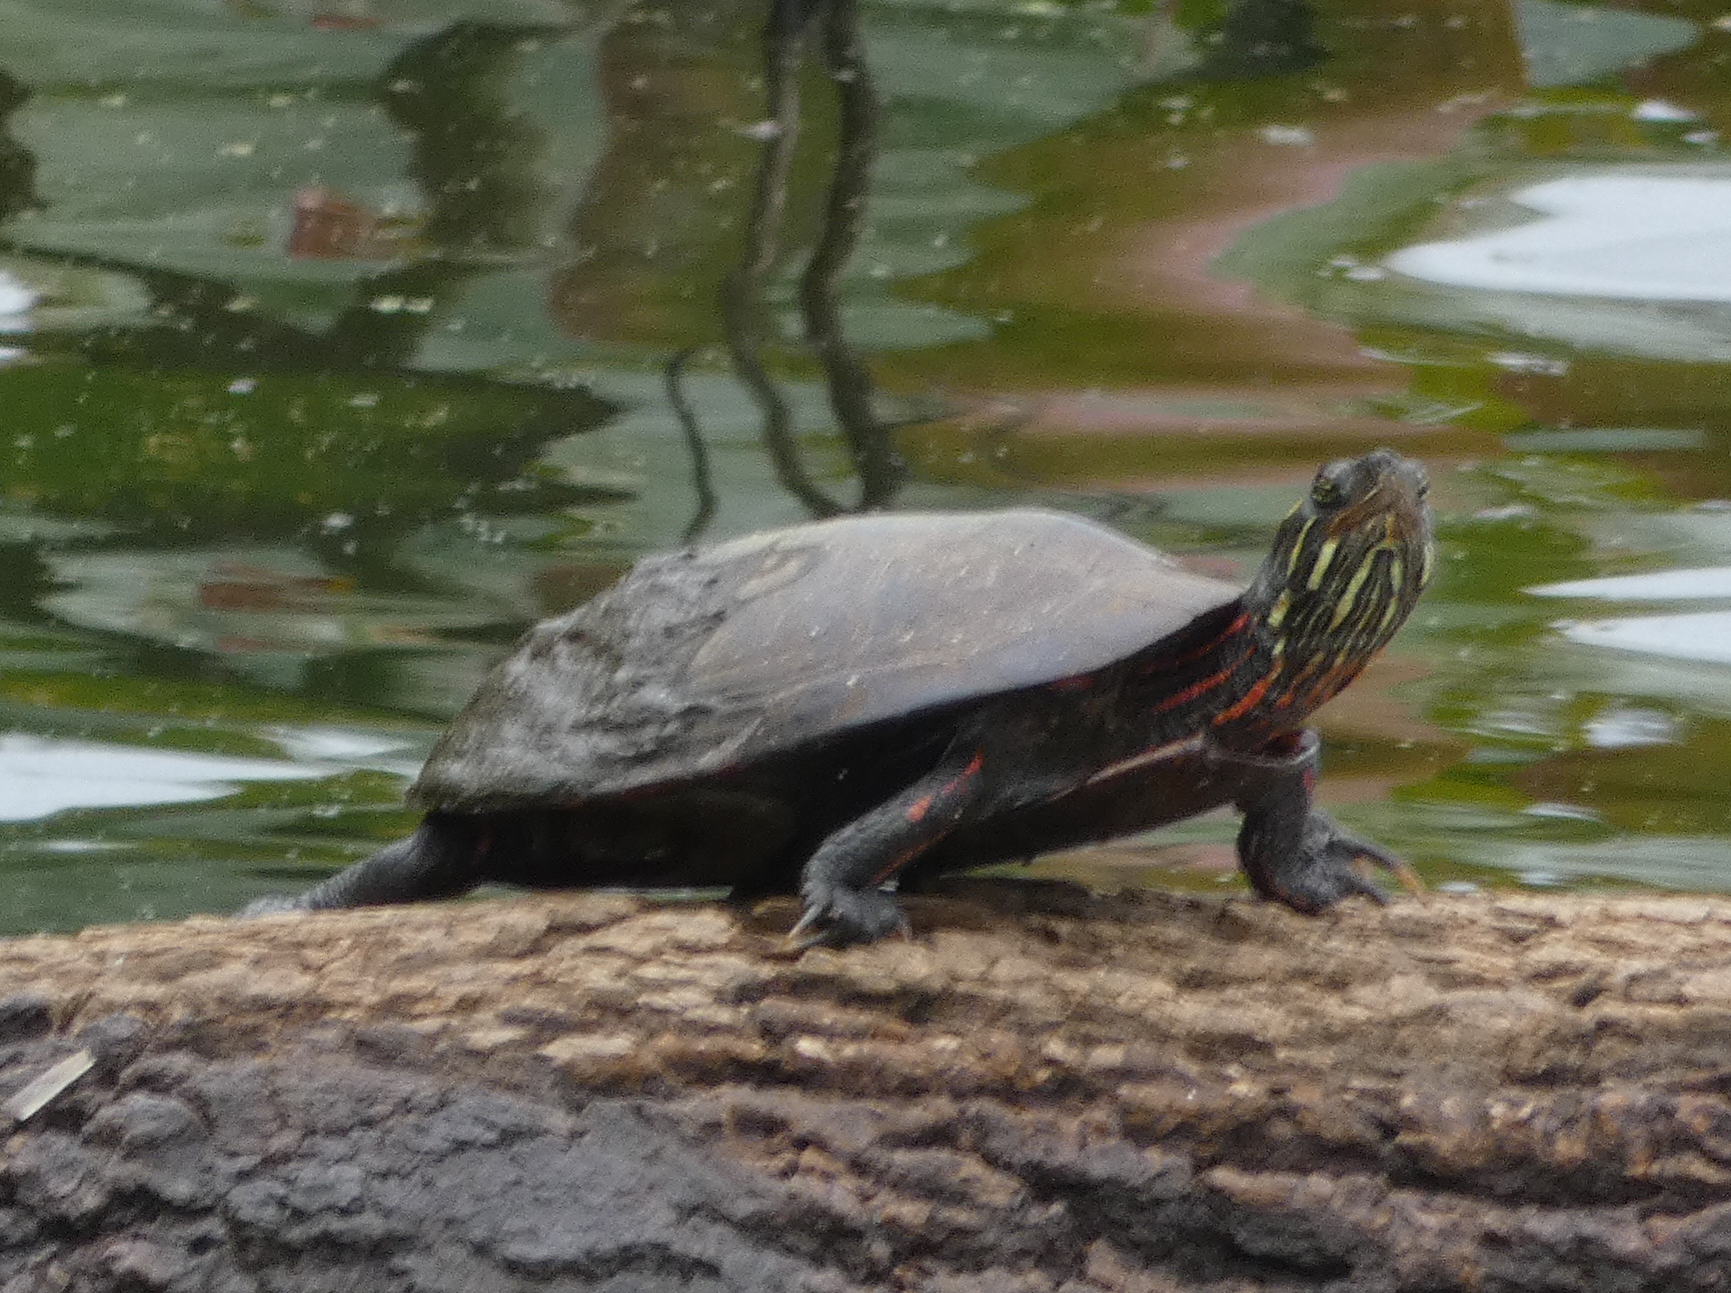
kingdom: Animalia
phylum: Chordata
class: Testudines
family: Emydidae
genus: Chrysemys
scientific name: Chrysemys picta
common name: Painted turtle
